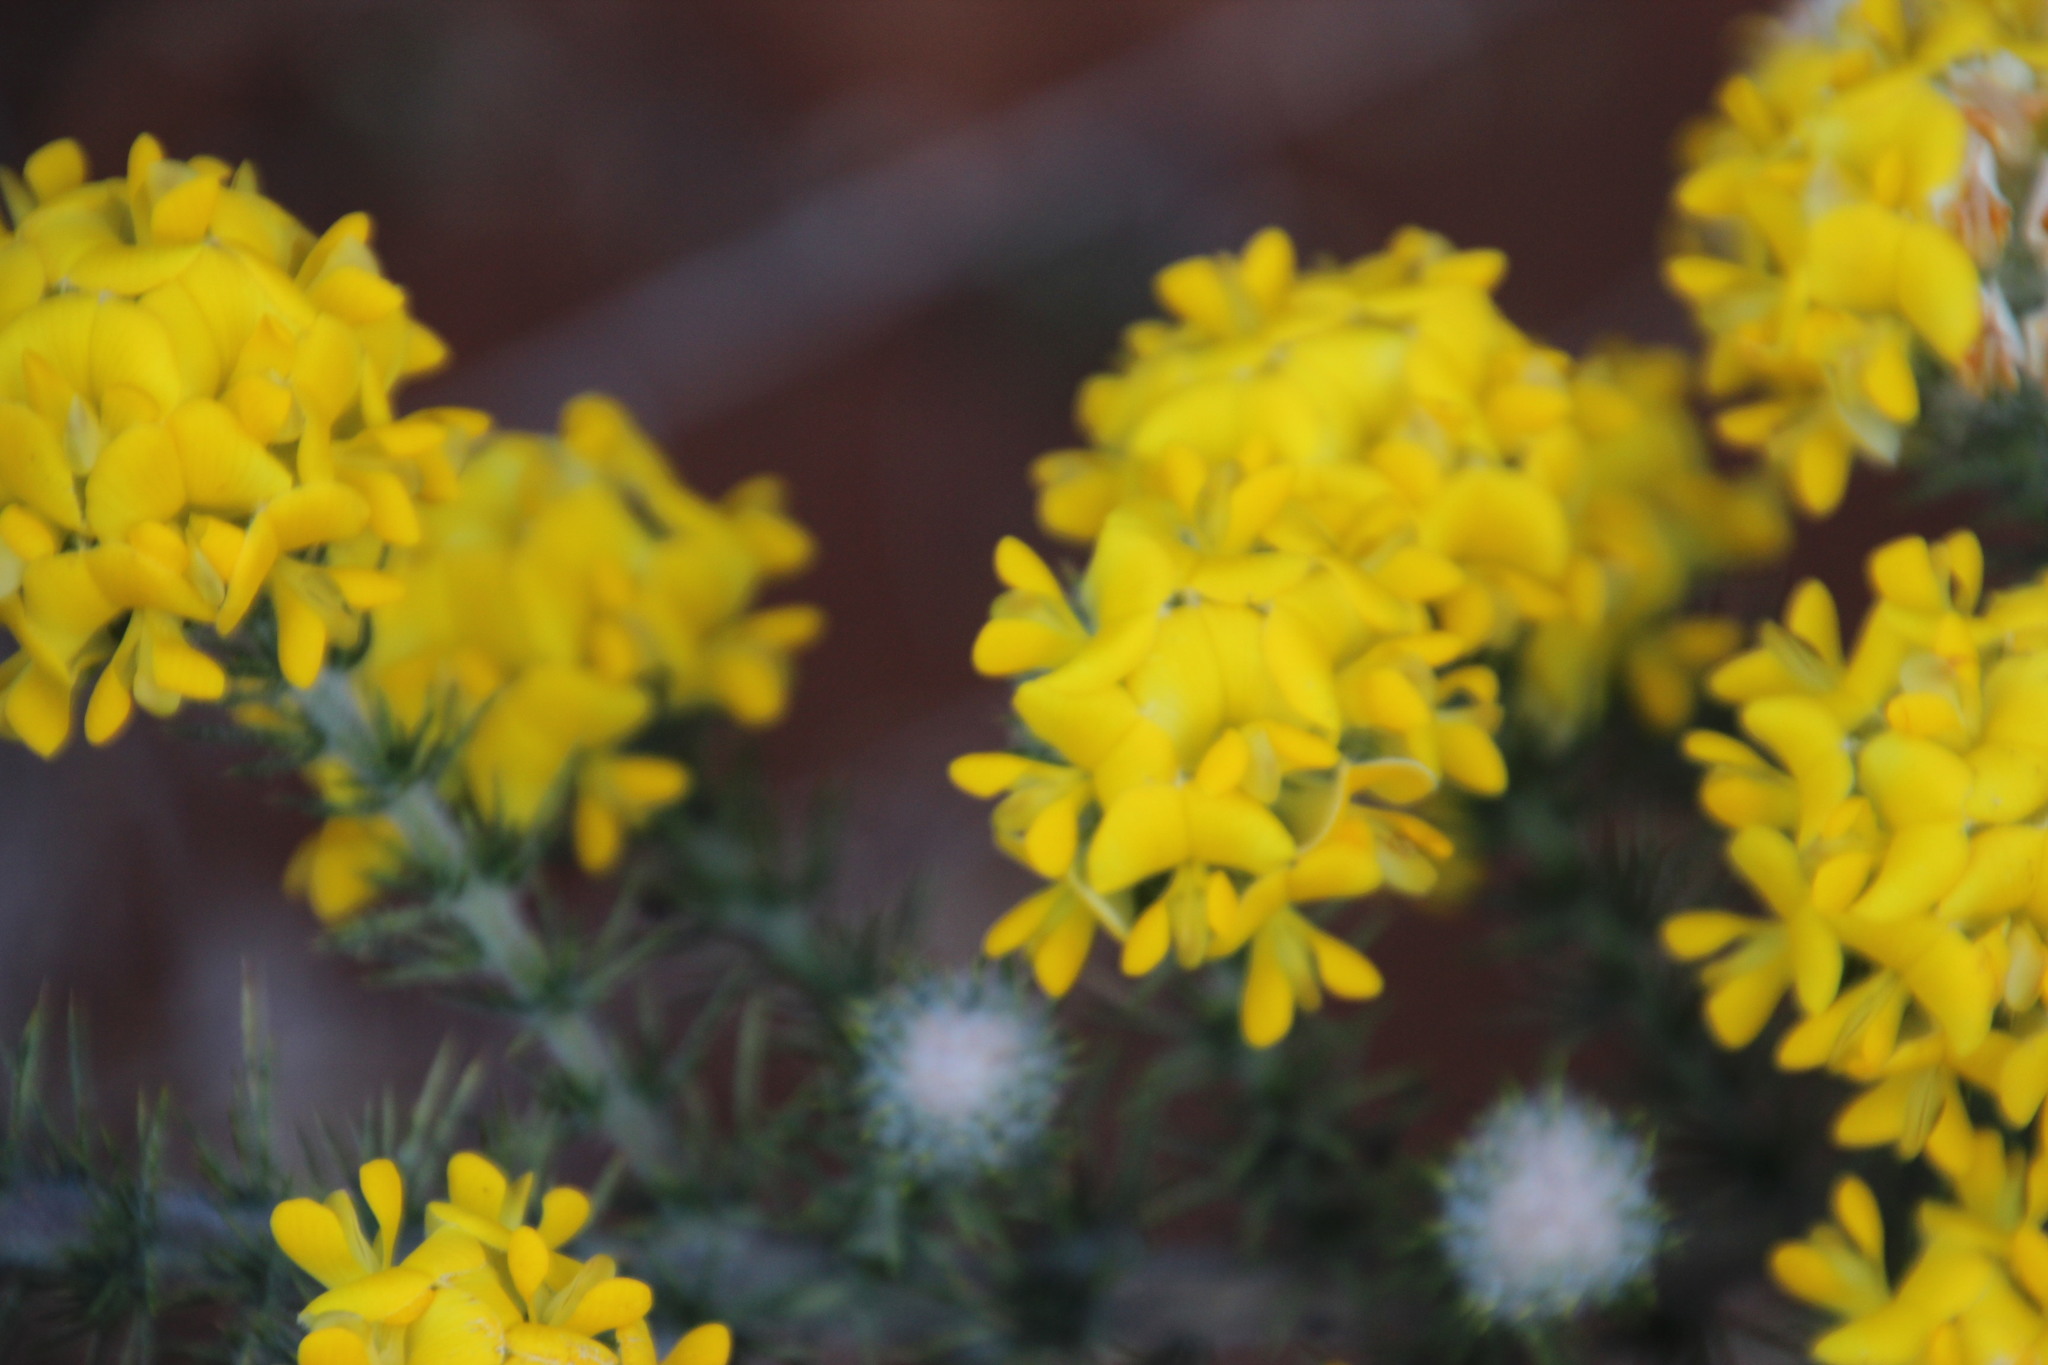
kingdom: Plantae
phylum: Tracheophyta
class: Magnoliopsida
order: Fabales
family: Fabaceae
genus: Aspalathus
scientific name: Aspalathus chenopoda
